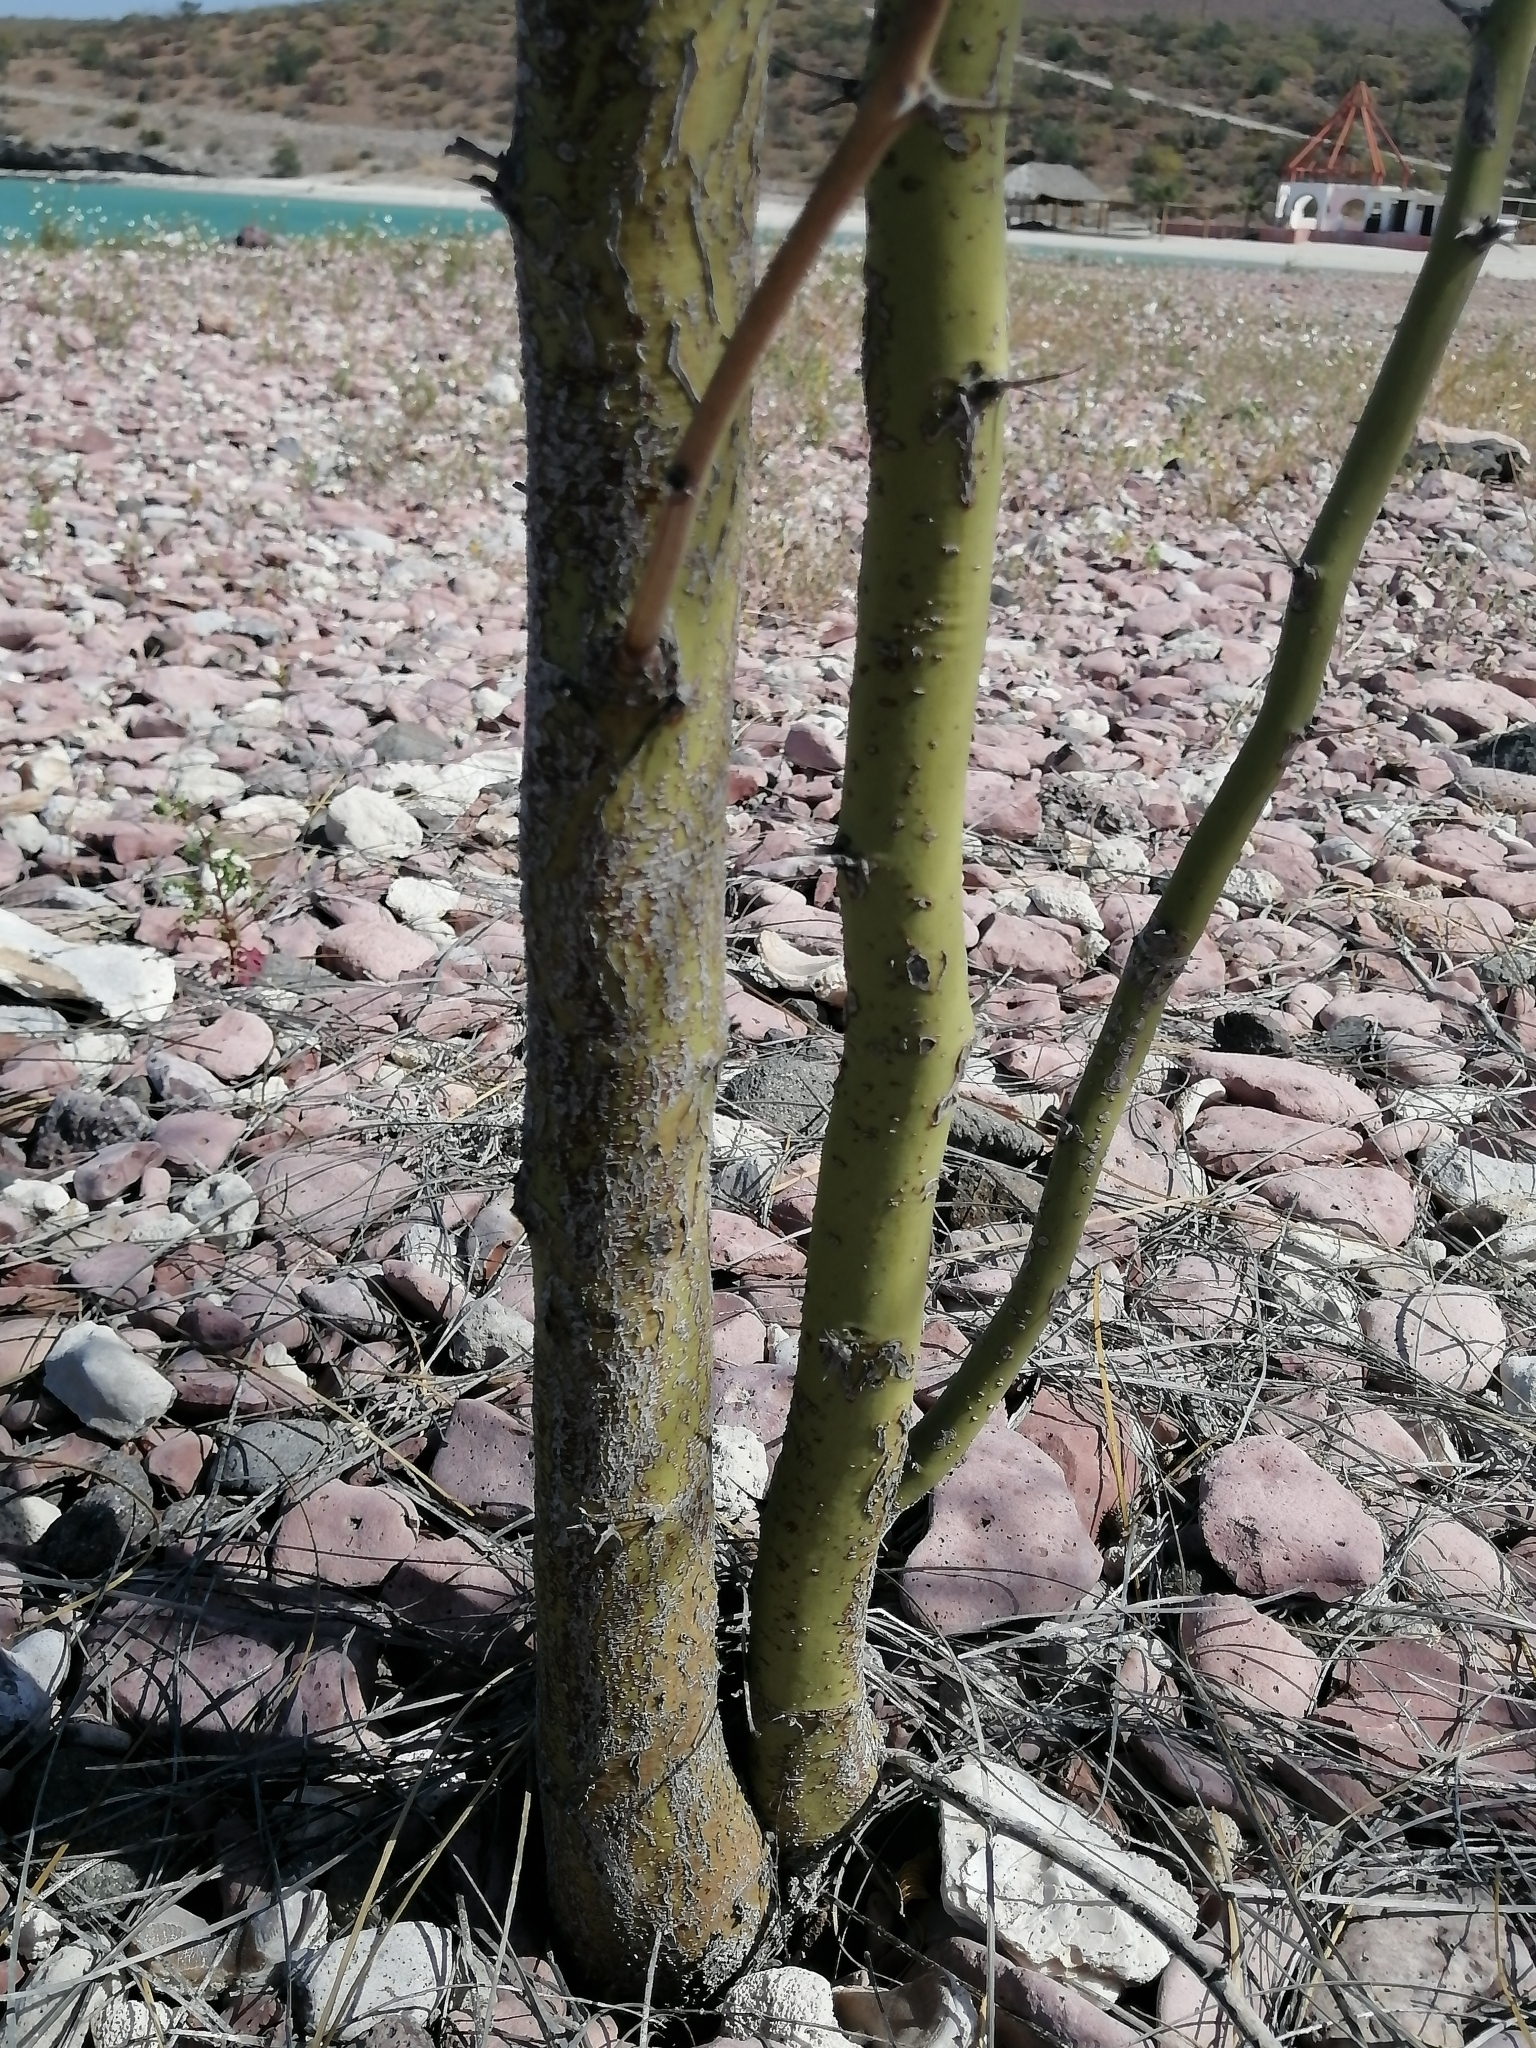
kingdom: Plantae
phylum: Tracheophyta
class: Magnoliopsida
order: Fabales
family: Fabaceae
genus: Parkinsonia
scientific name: Parkinsonia aculeata
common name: Jerusalem thorn
